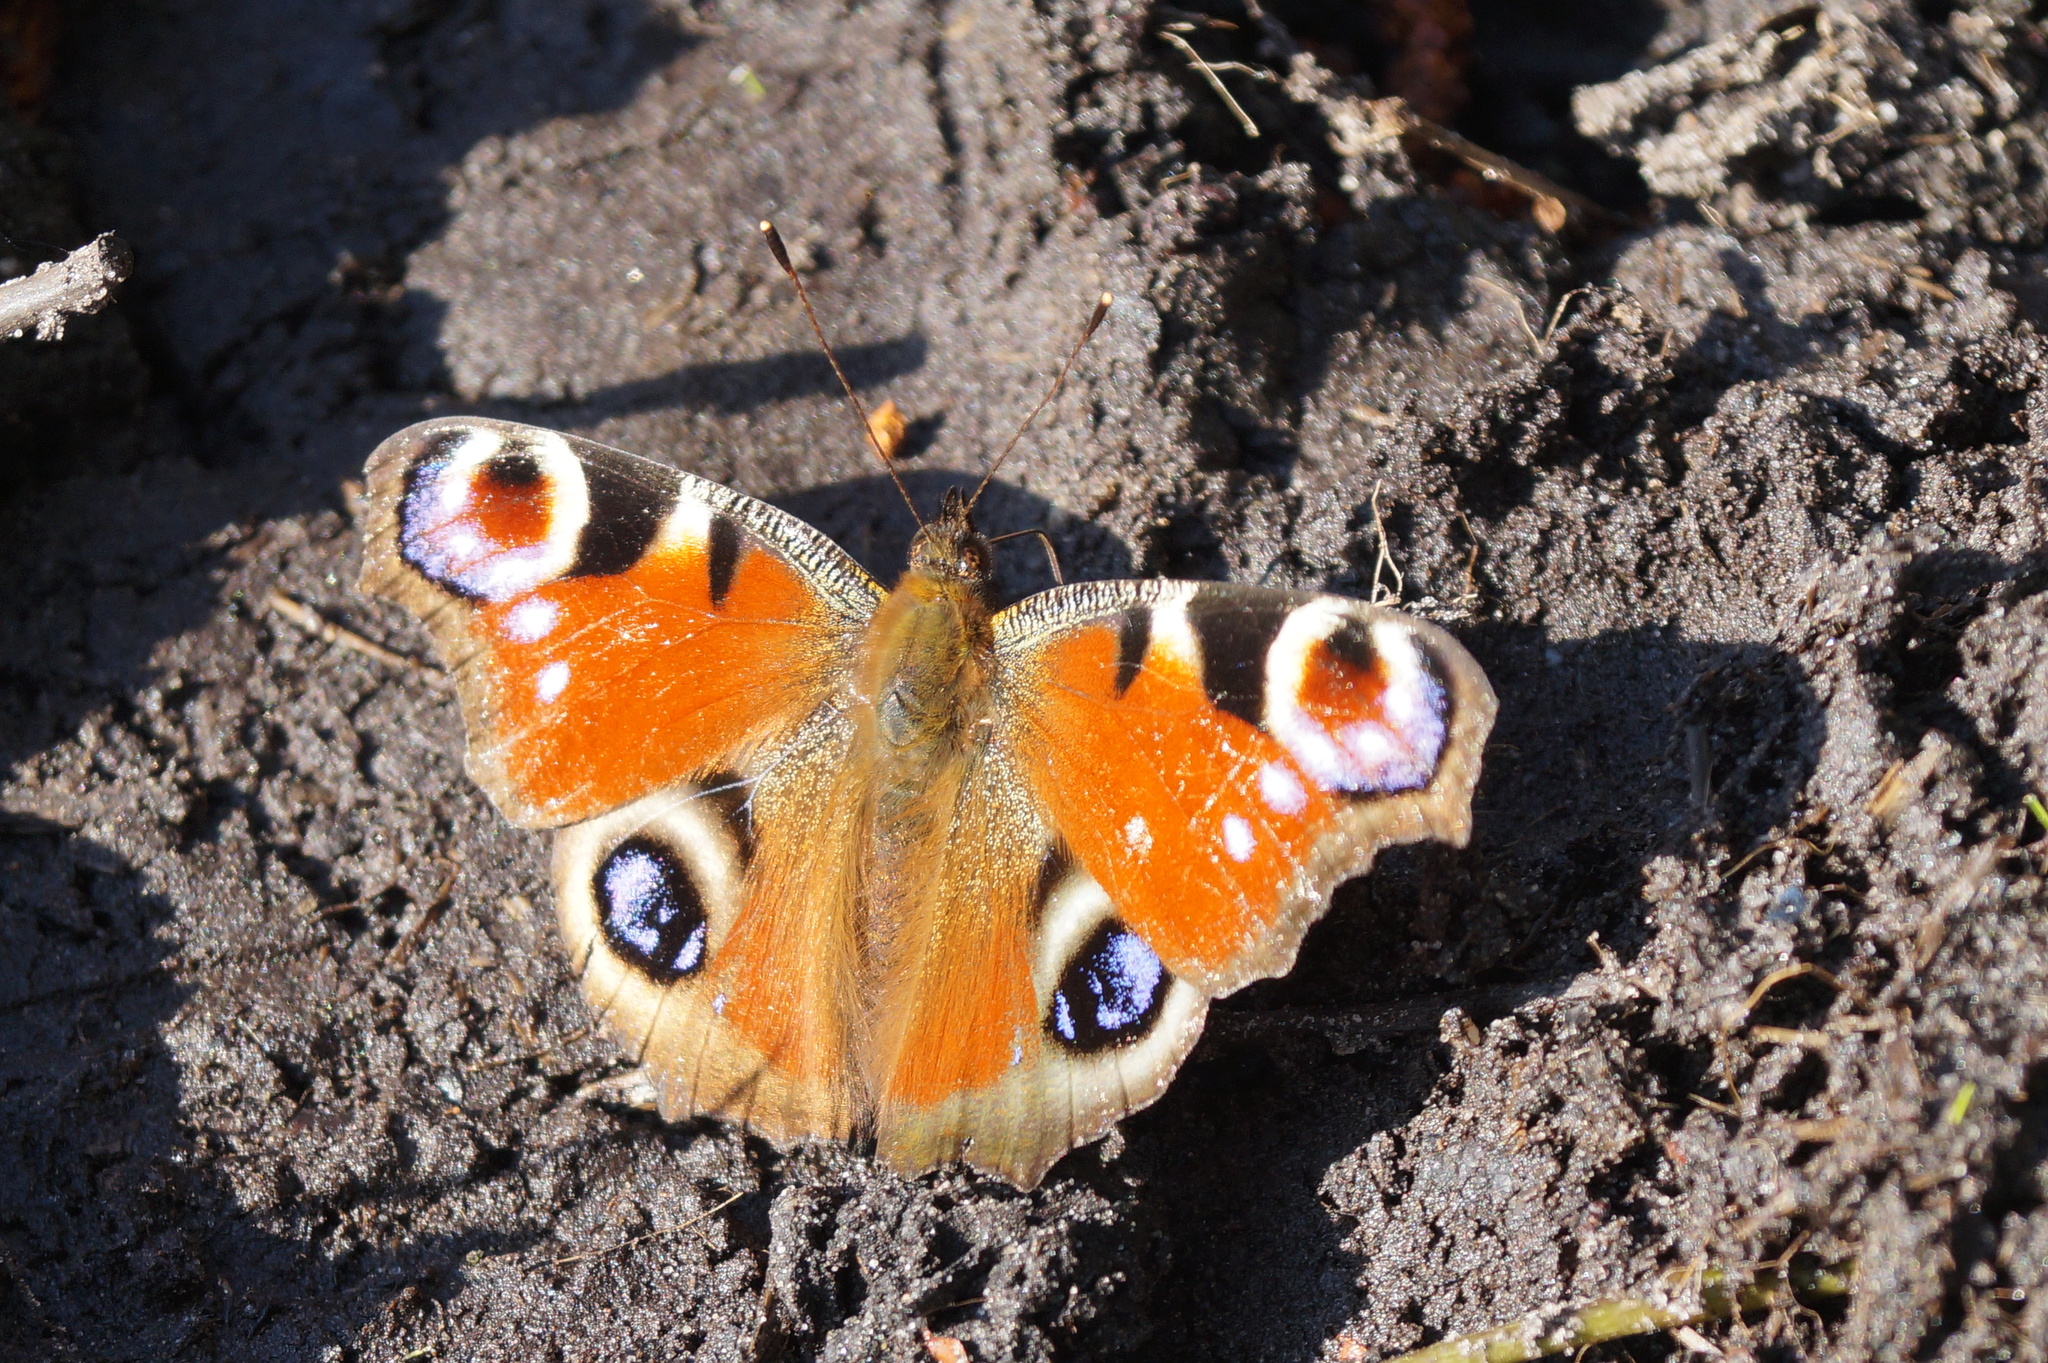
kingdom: Animalia
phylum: Arthropoda
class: Insecta
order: Lepidoptera
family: Nymphalidae
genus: Aglais
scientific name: Aglais io
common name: Peacock
